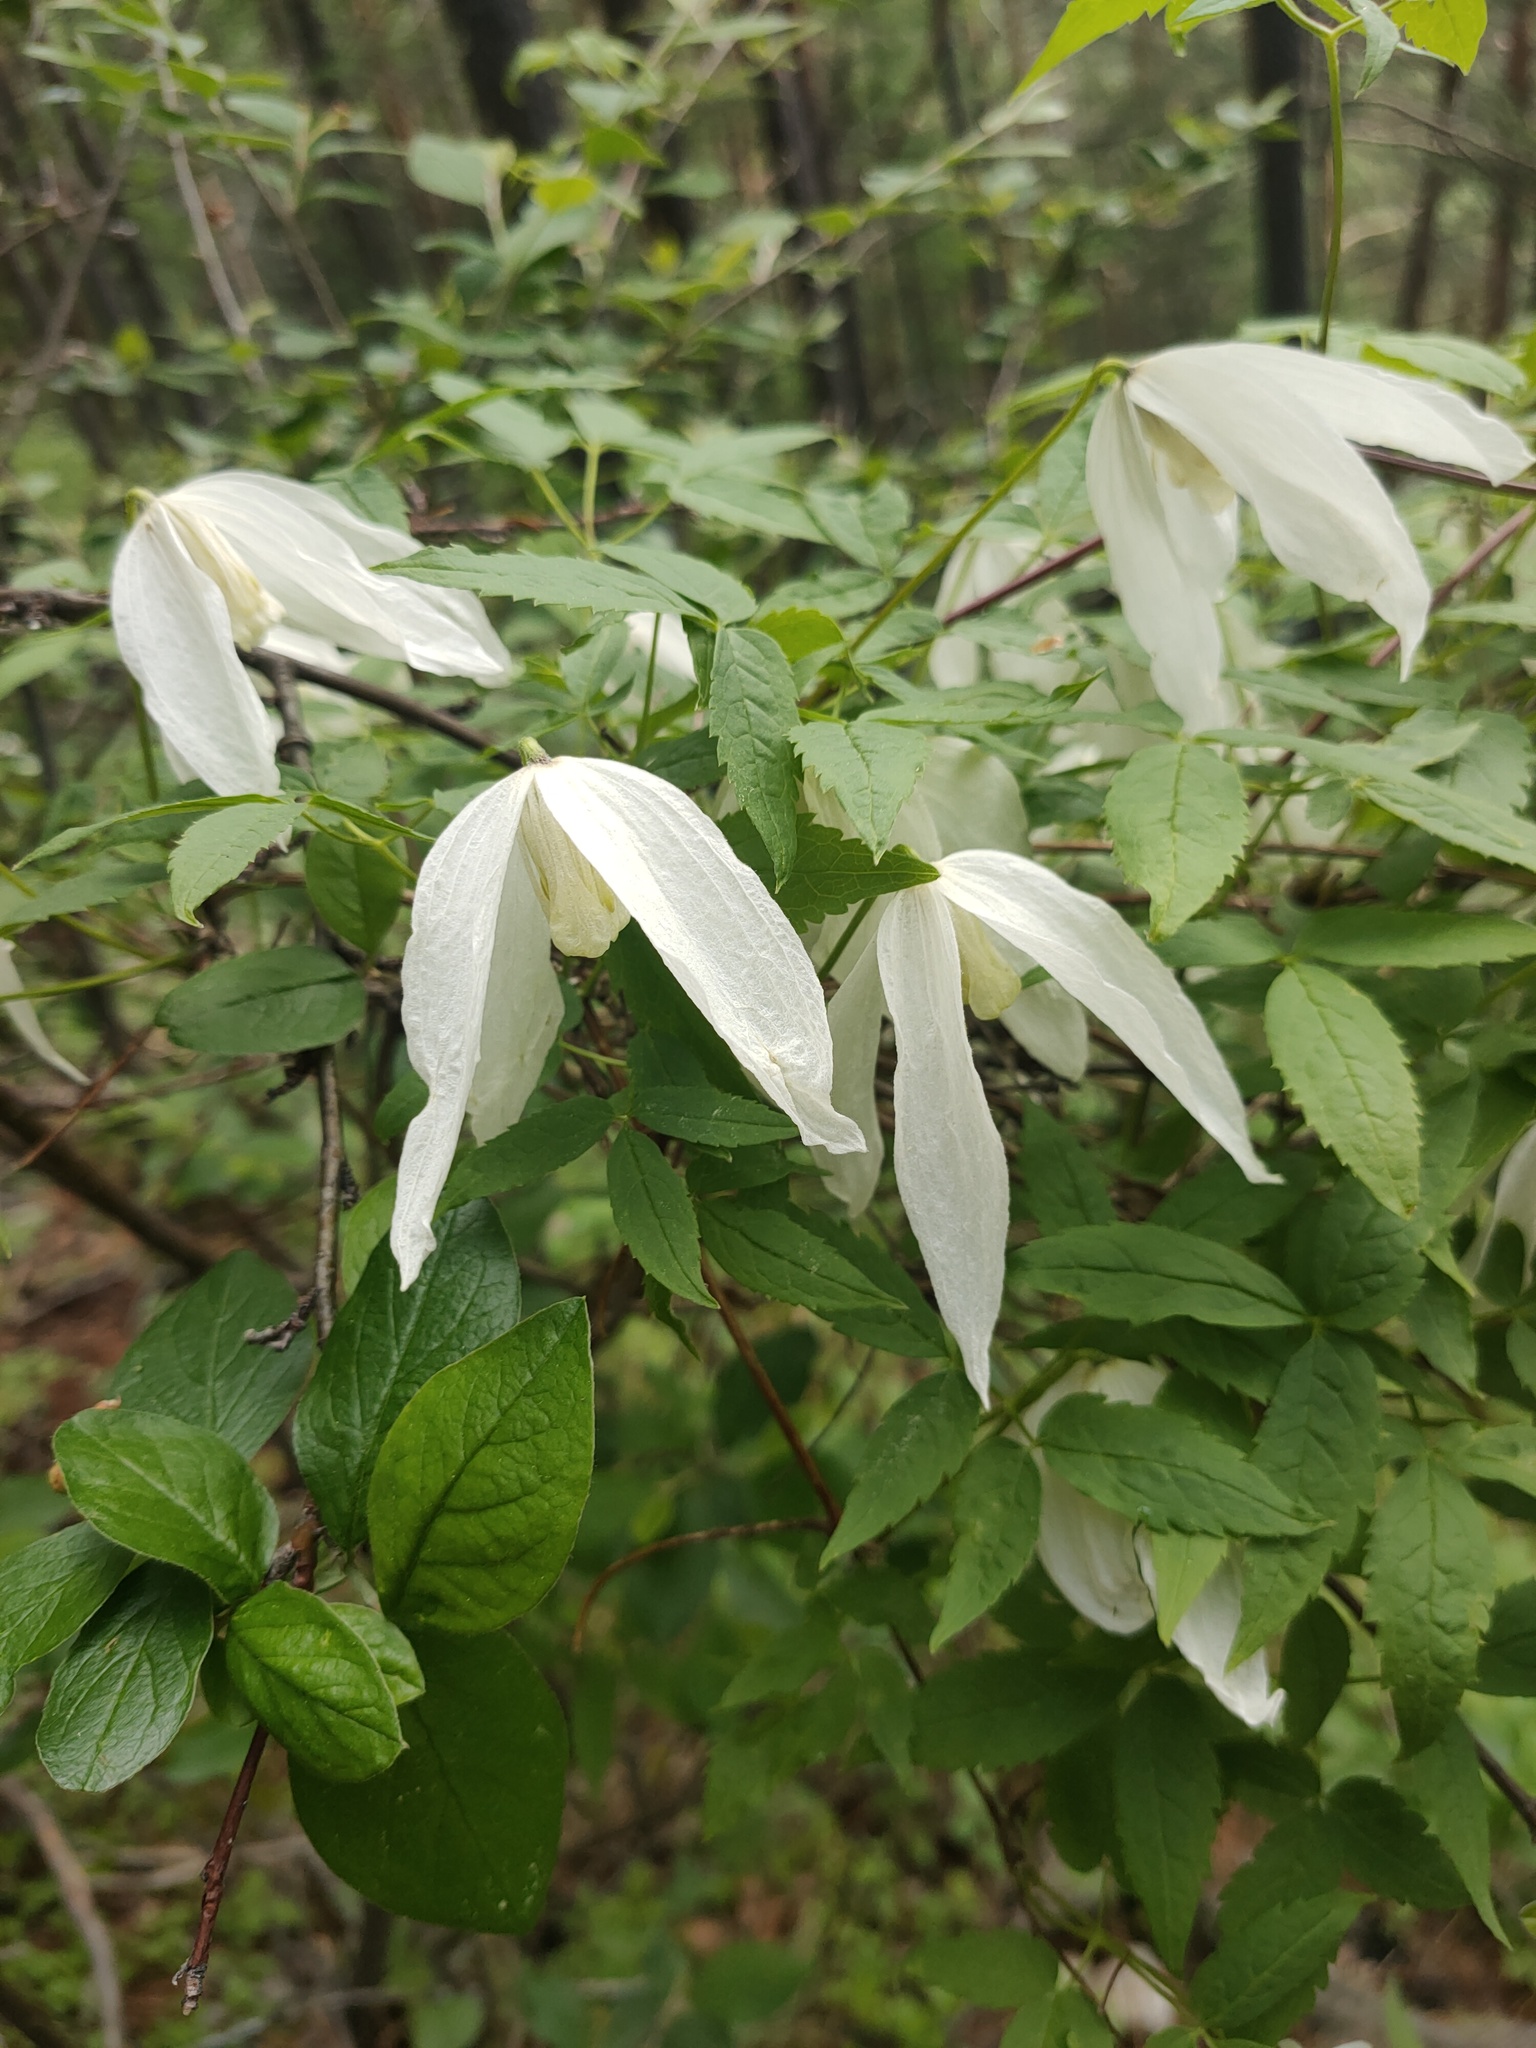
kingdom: Plantae
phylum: Tracheophyta
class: Magnoliopsida
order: Ranunculales
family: Ranunculaceae
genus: Clematis
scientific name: Clematis sibirica
